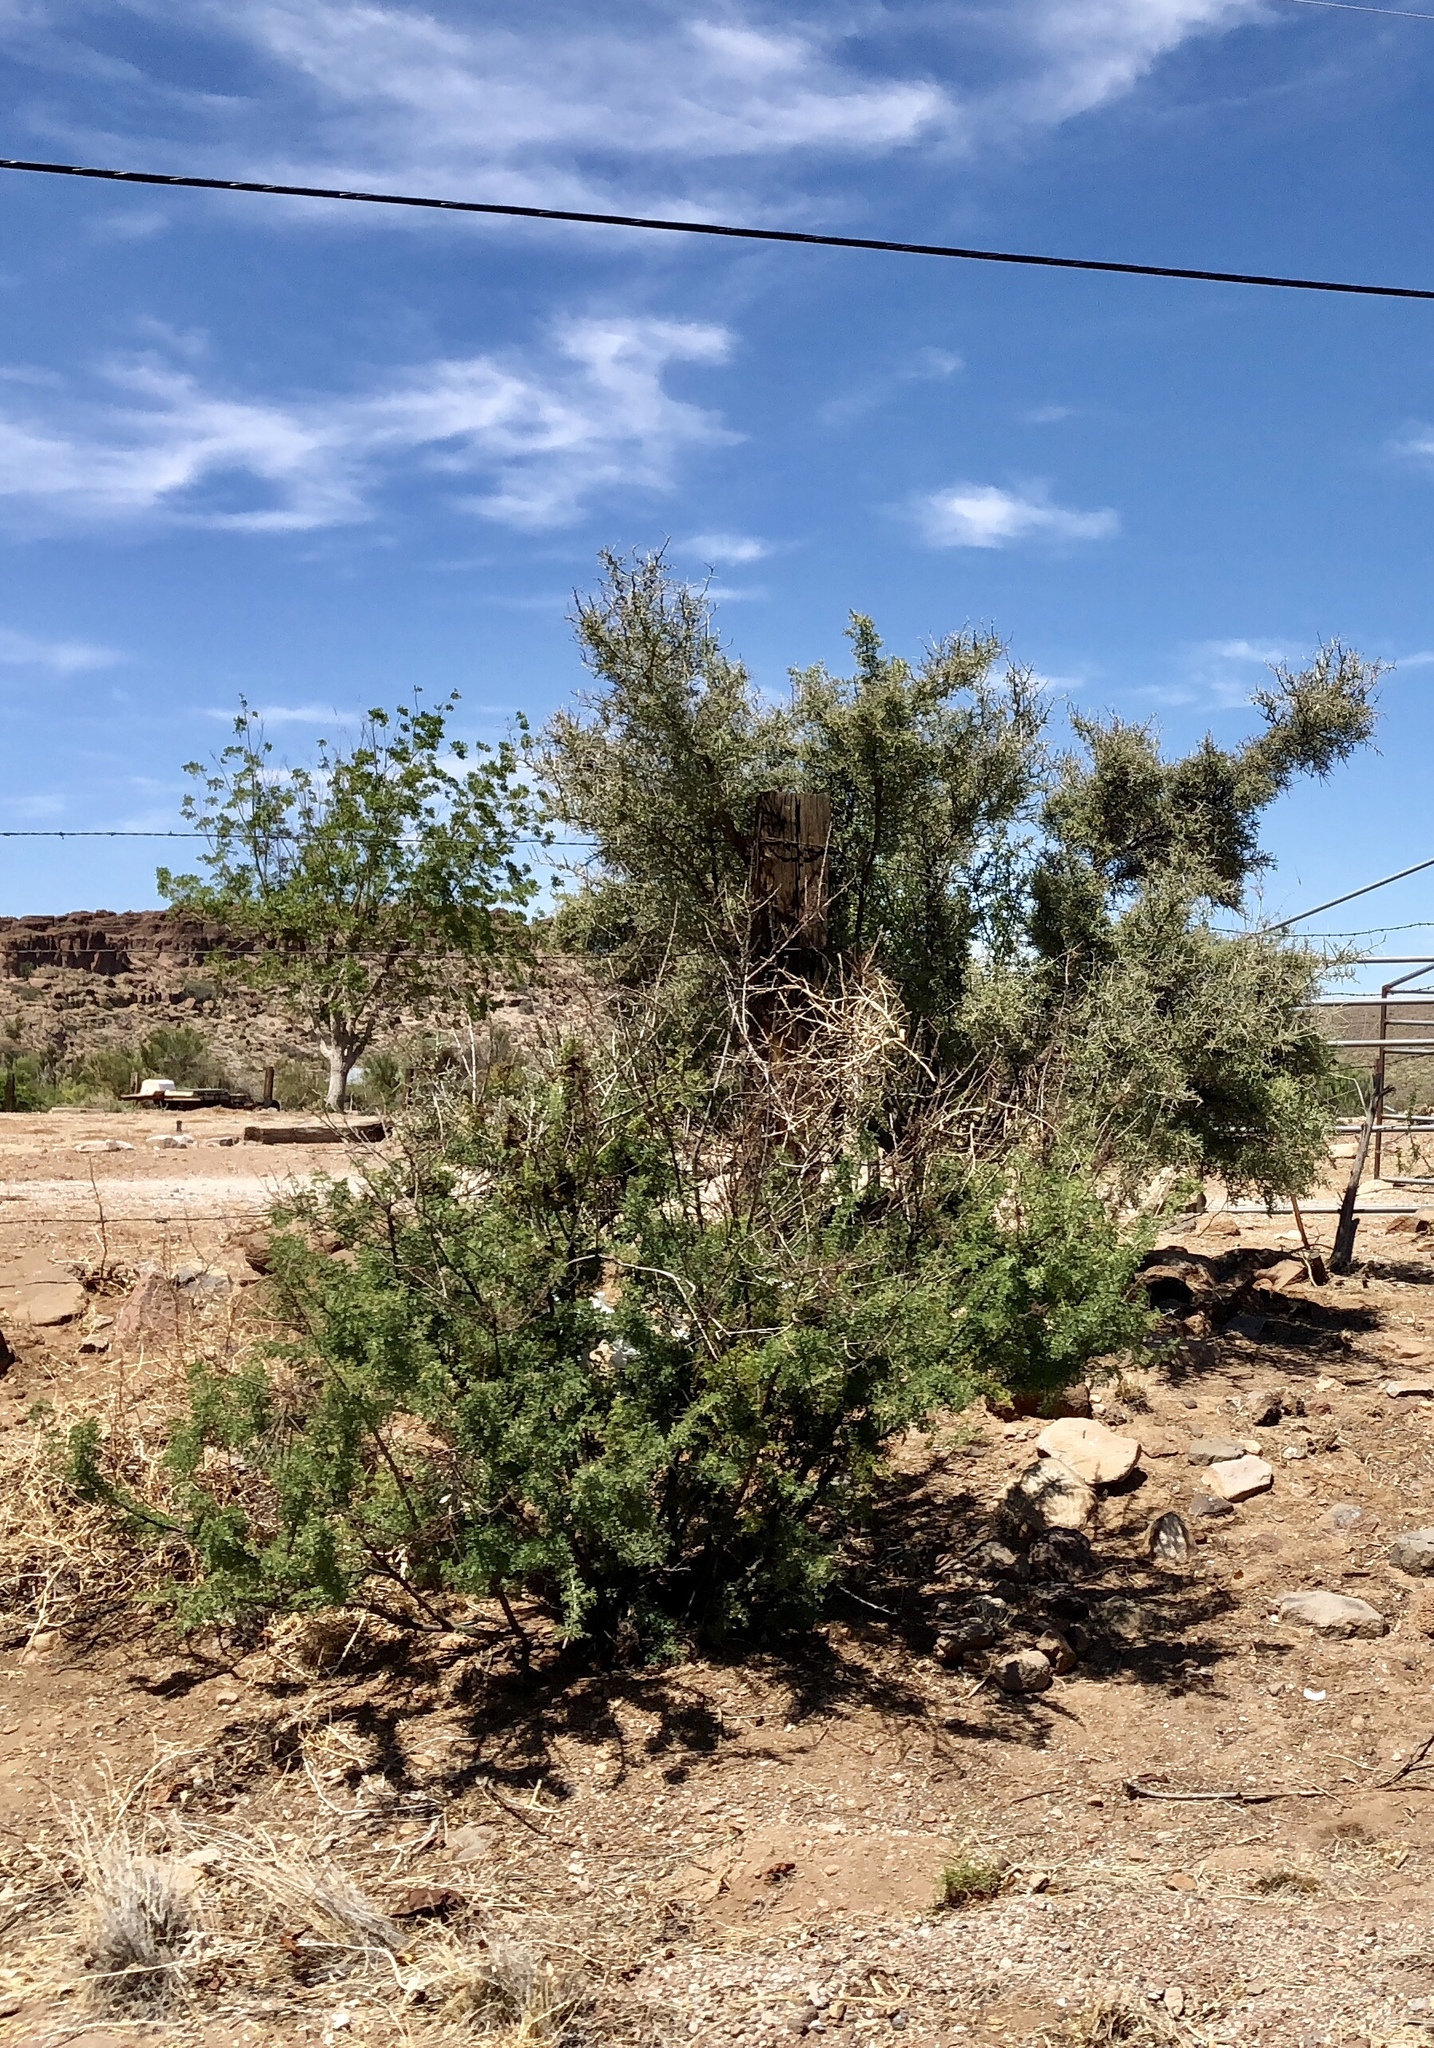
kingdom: Plantae
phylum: Tracheophyta
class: Magnoliopsida
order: Fabales
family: Fabaceae
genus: Senegalia
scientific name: Senegalia greggii
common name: Texas-mimosa
